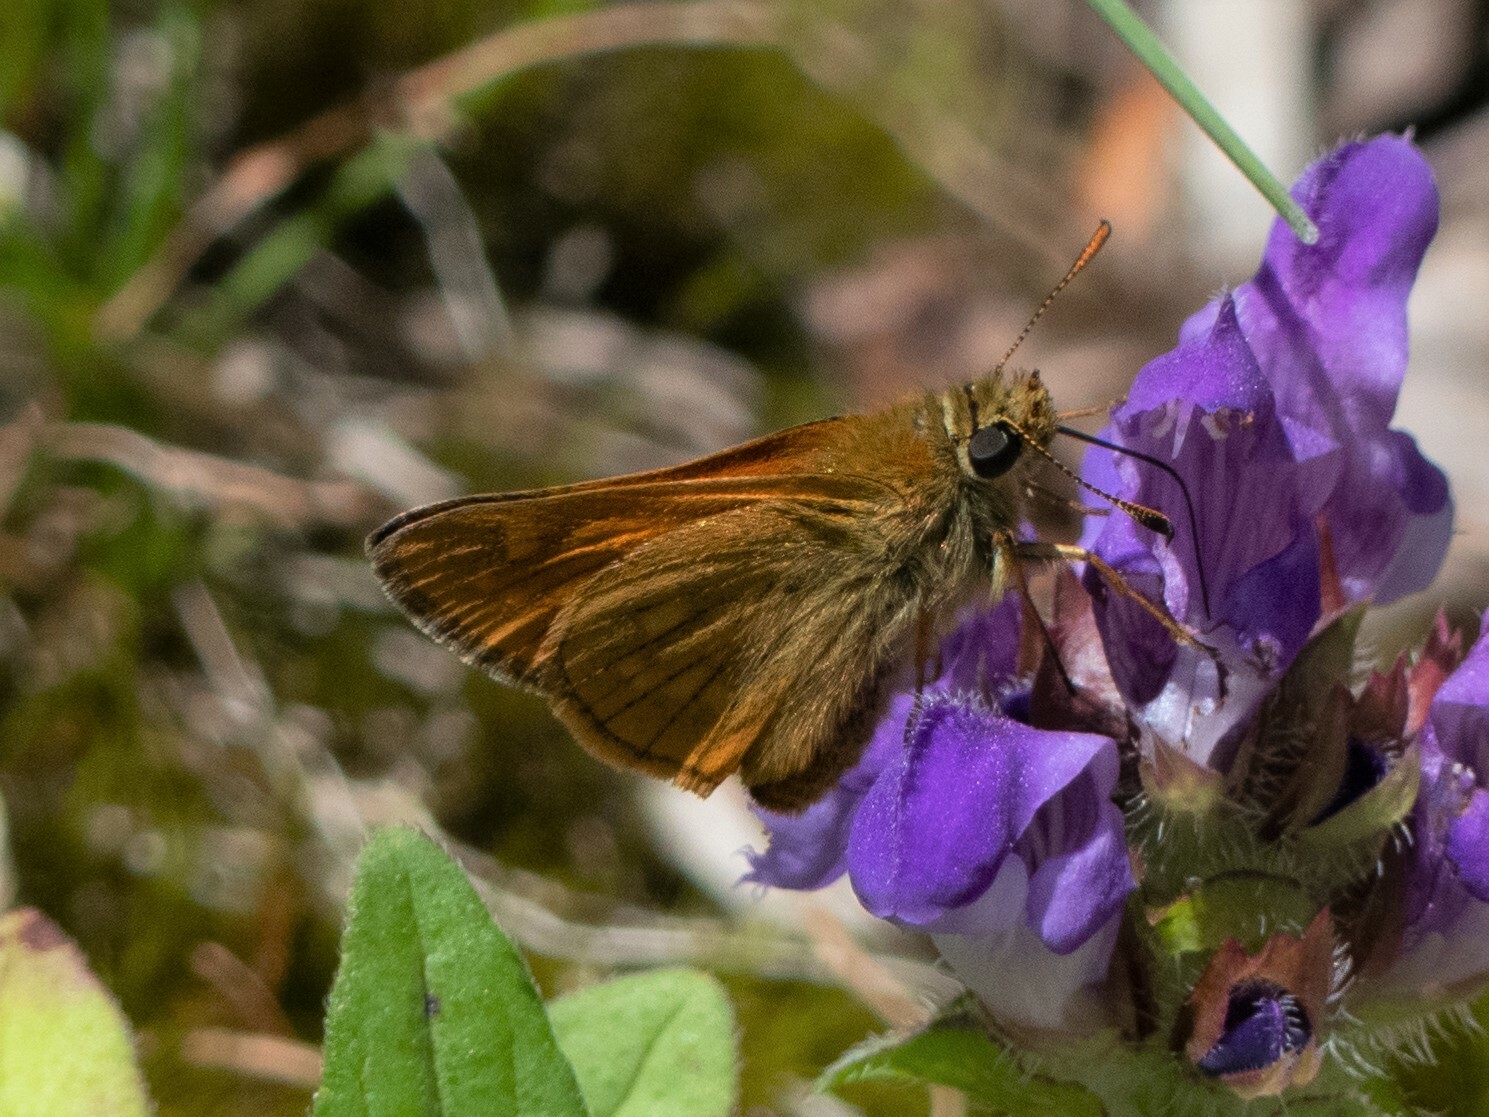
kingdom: Animalia
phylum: Arthropoda
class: Insecta
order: Lepidoptera
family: Hesperiidae
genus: Ochlodes
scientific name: Ochlodes venata
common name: Large skipper
